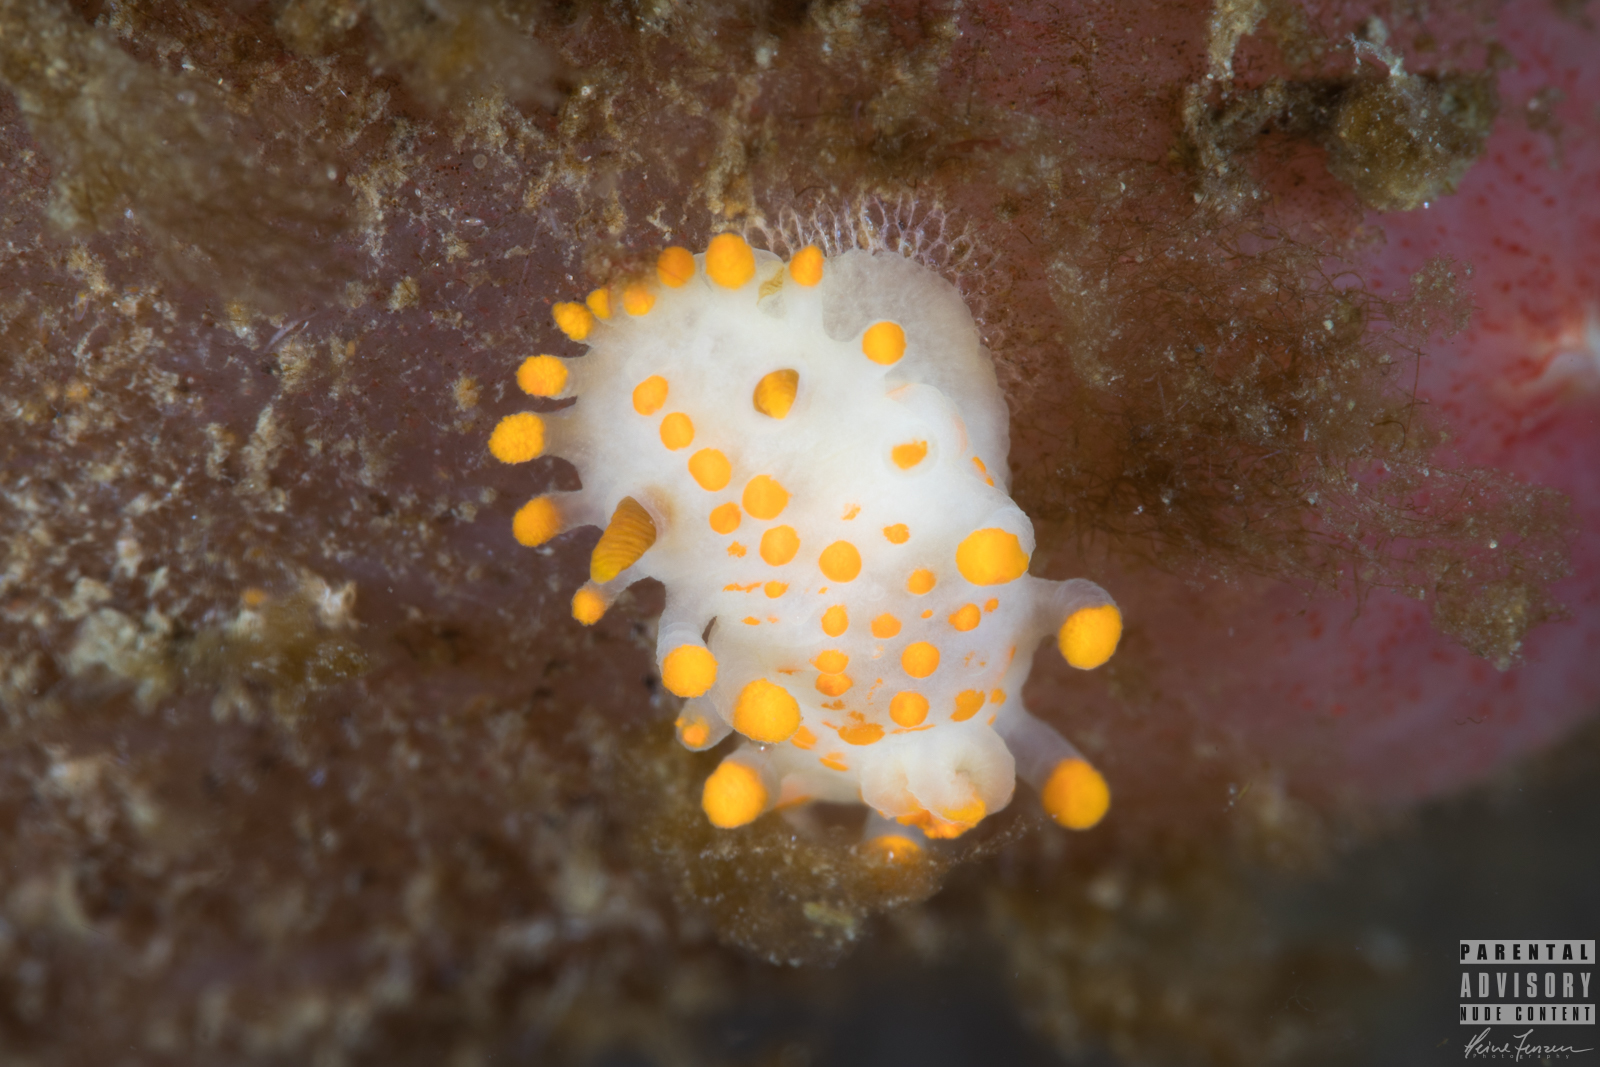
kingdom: Animalia
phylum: Mollusca
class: Gastropoda
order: Nudibranchia
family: Polyceridae
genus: Limacia
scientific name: Limacia clavigera
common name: Orange-clubbed sea slug
